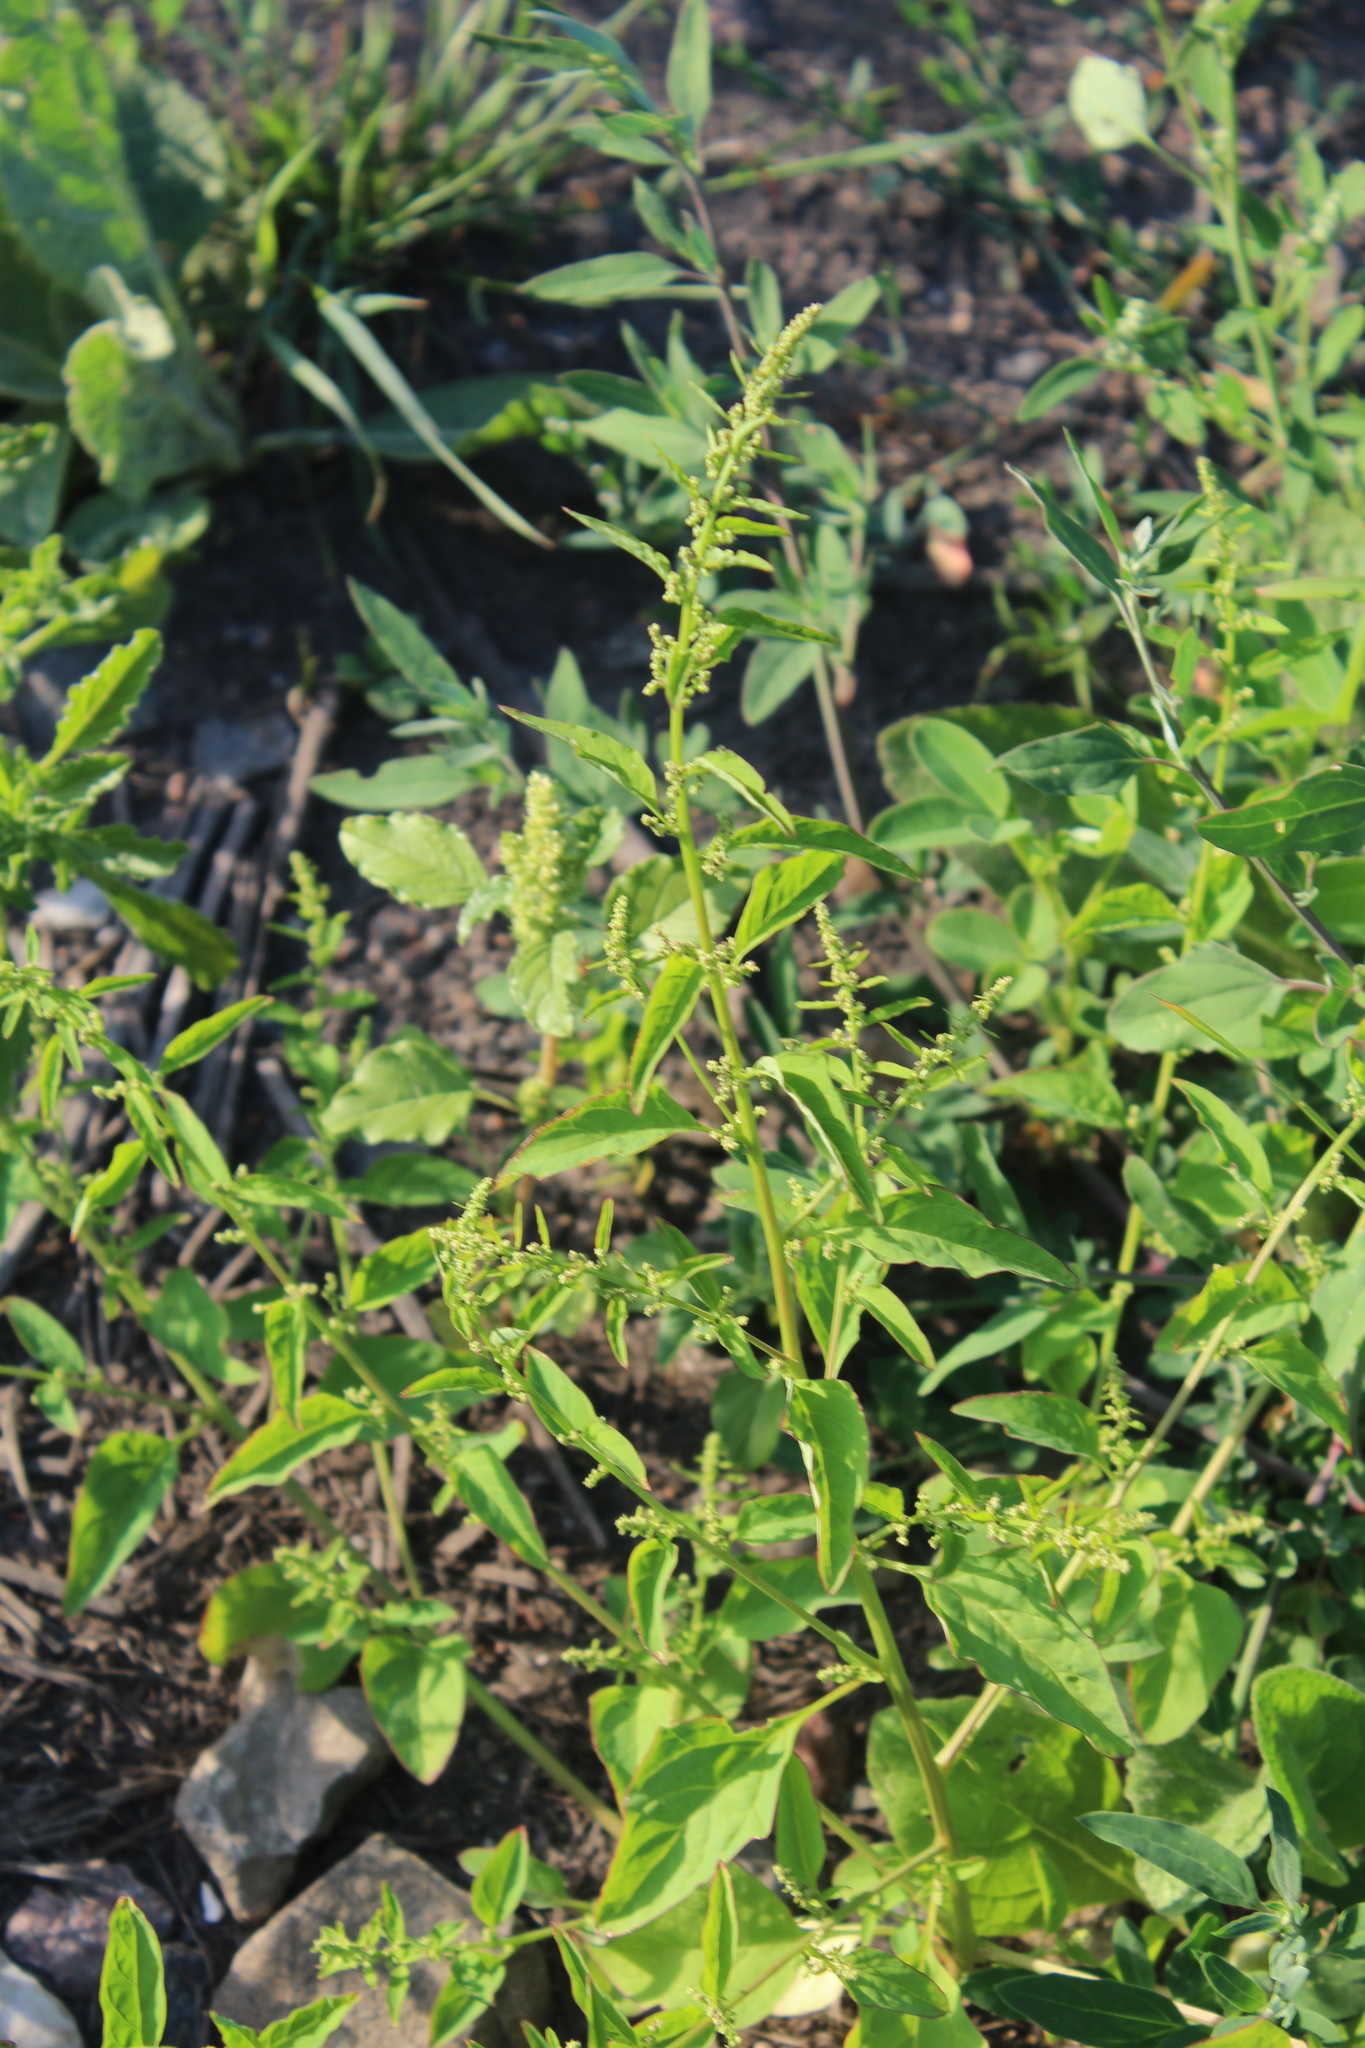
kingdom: Plantae
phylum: Tracheophyta
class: Magnoliopsida
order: Caryophyllales
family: Amaranthaceae
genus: Lipandra
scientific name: Lipandra polysperma
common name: Many-seed goosefoot
